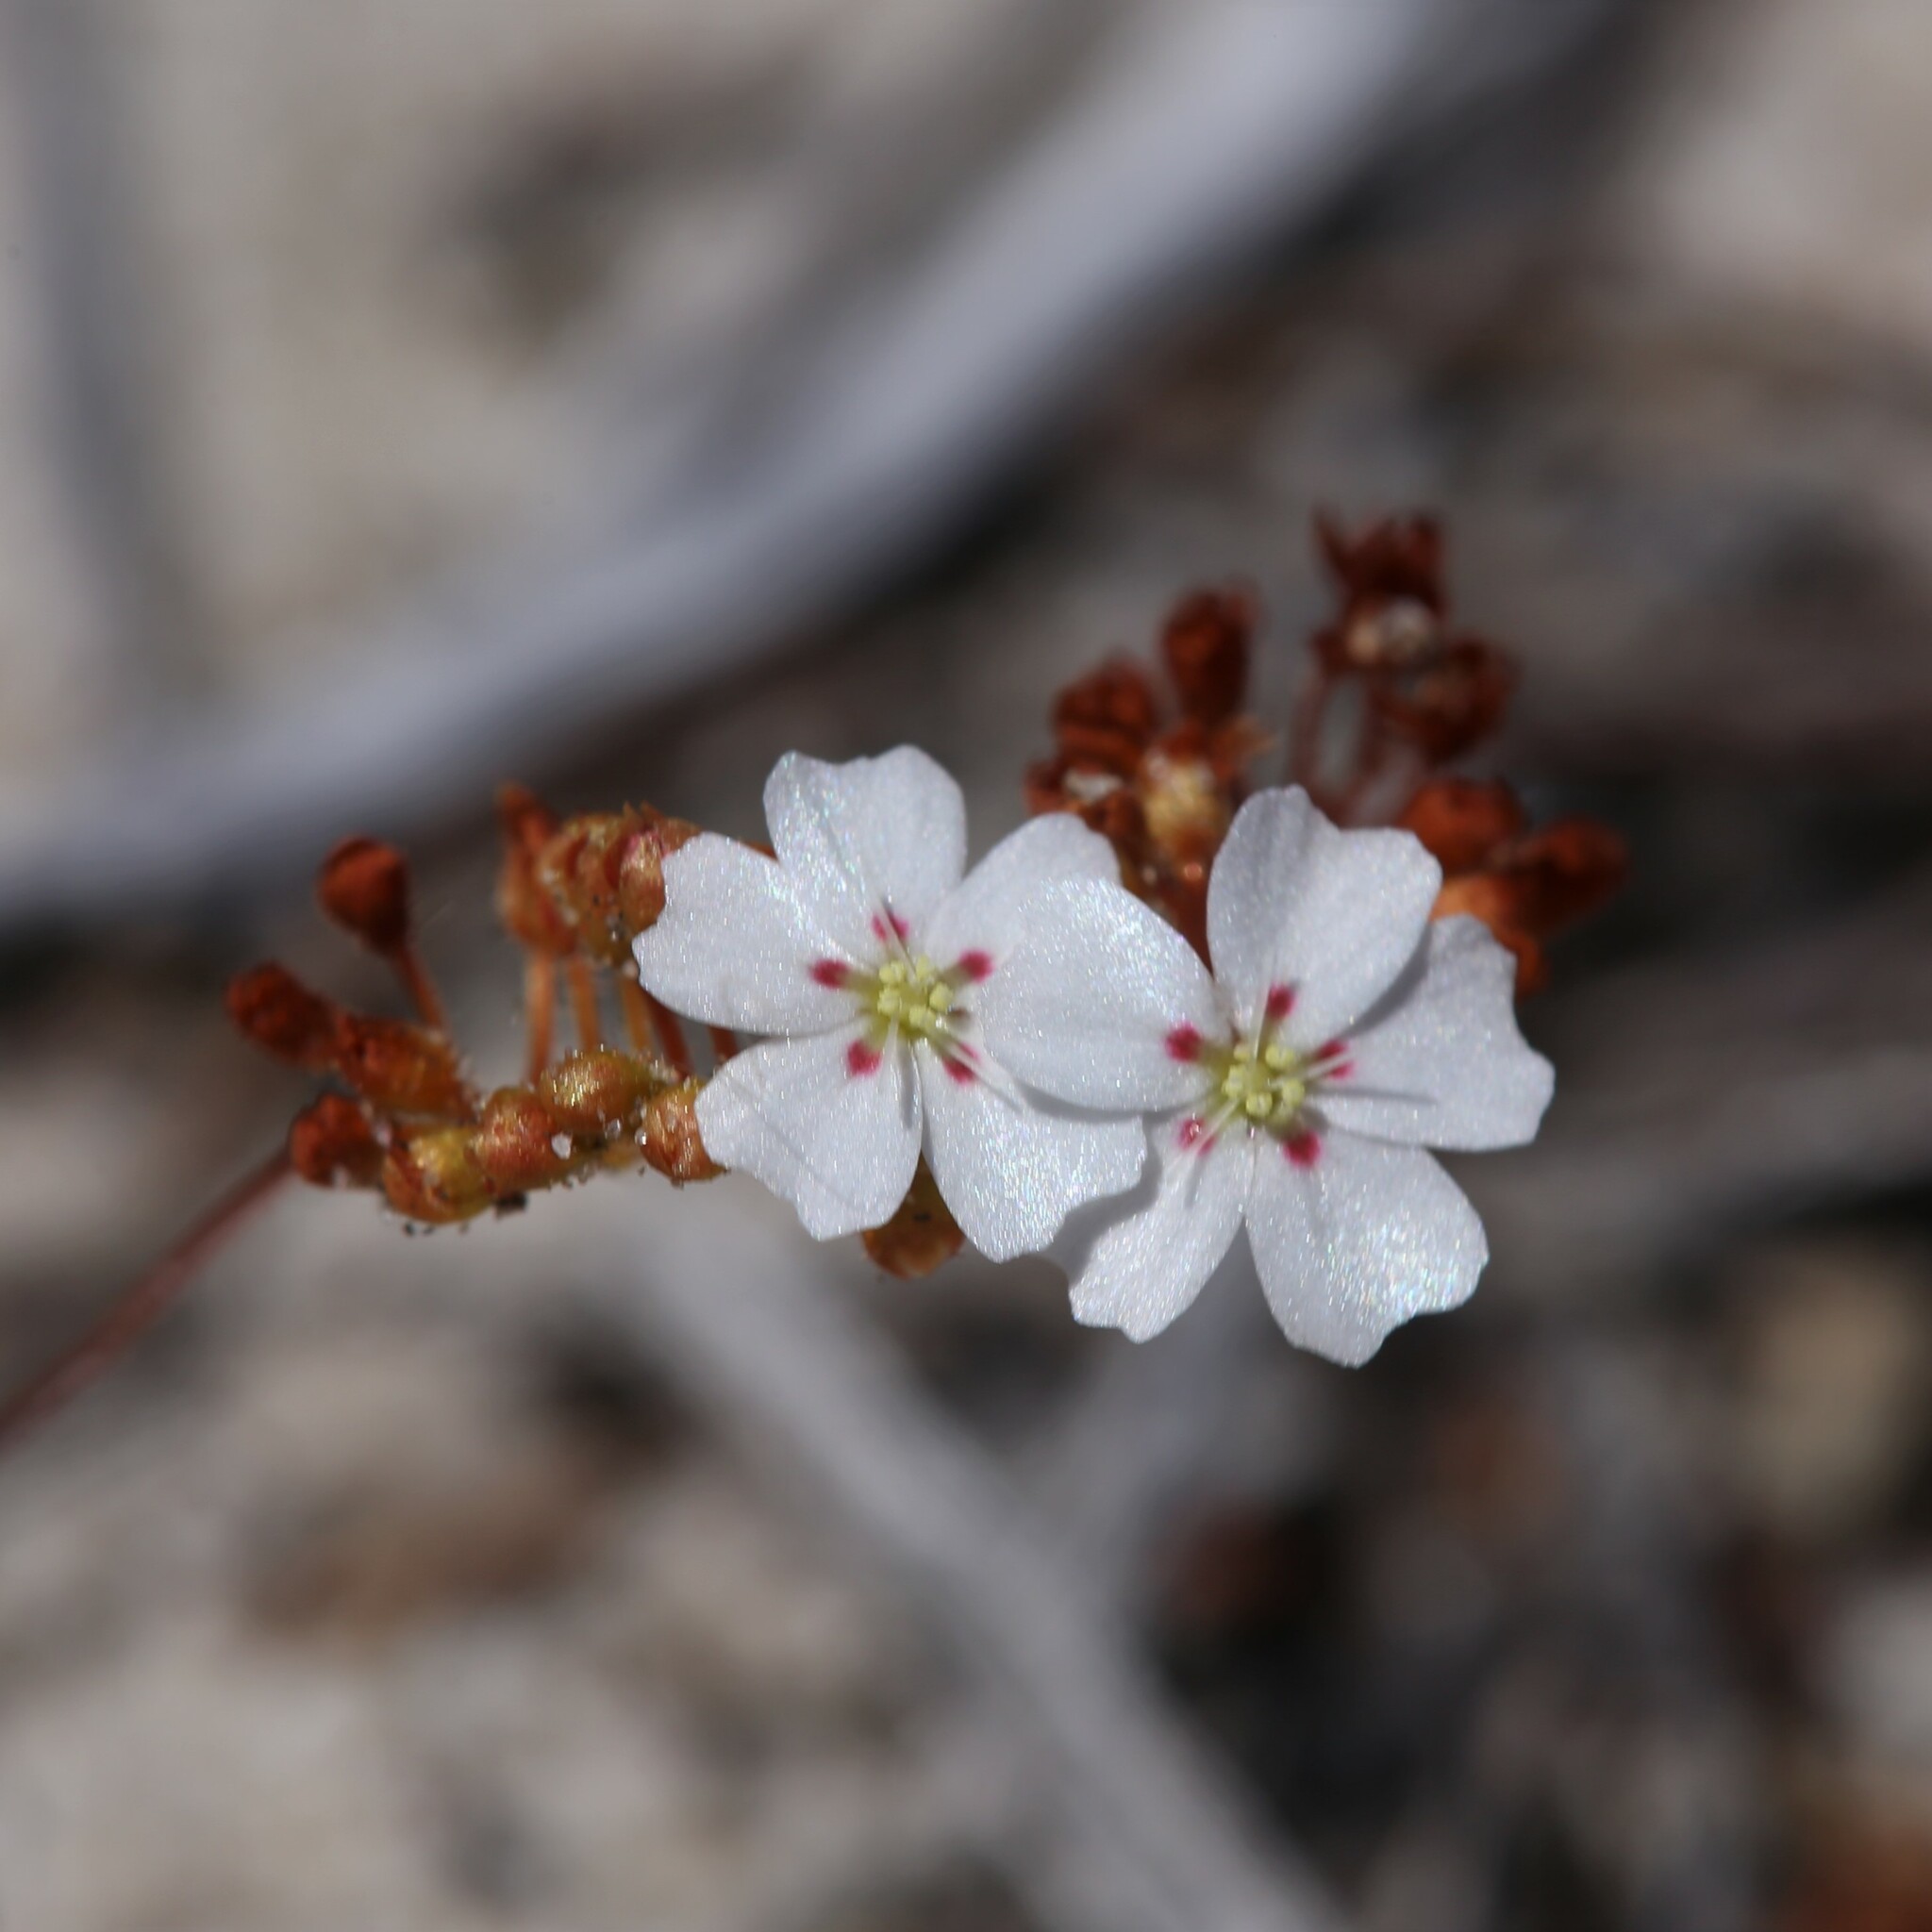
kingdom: Plantae
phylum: Tracheophyta
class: Magnoliopsida
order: Caryophyllales
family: Droseraceae
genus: Drosera
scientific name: Drosera eneabba
